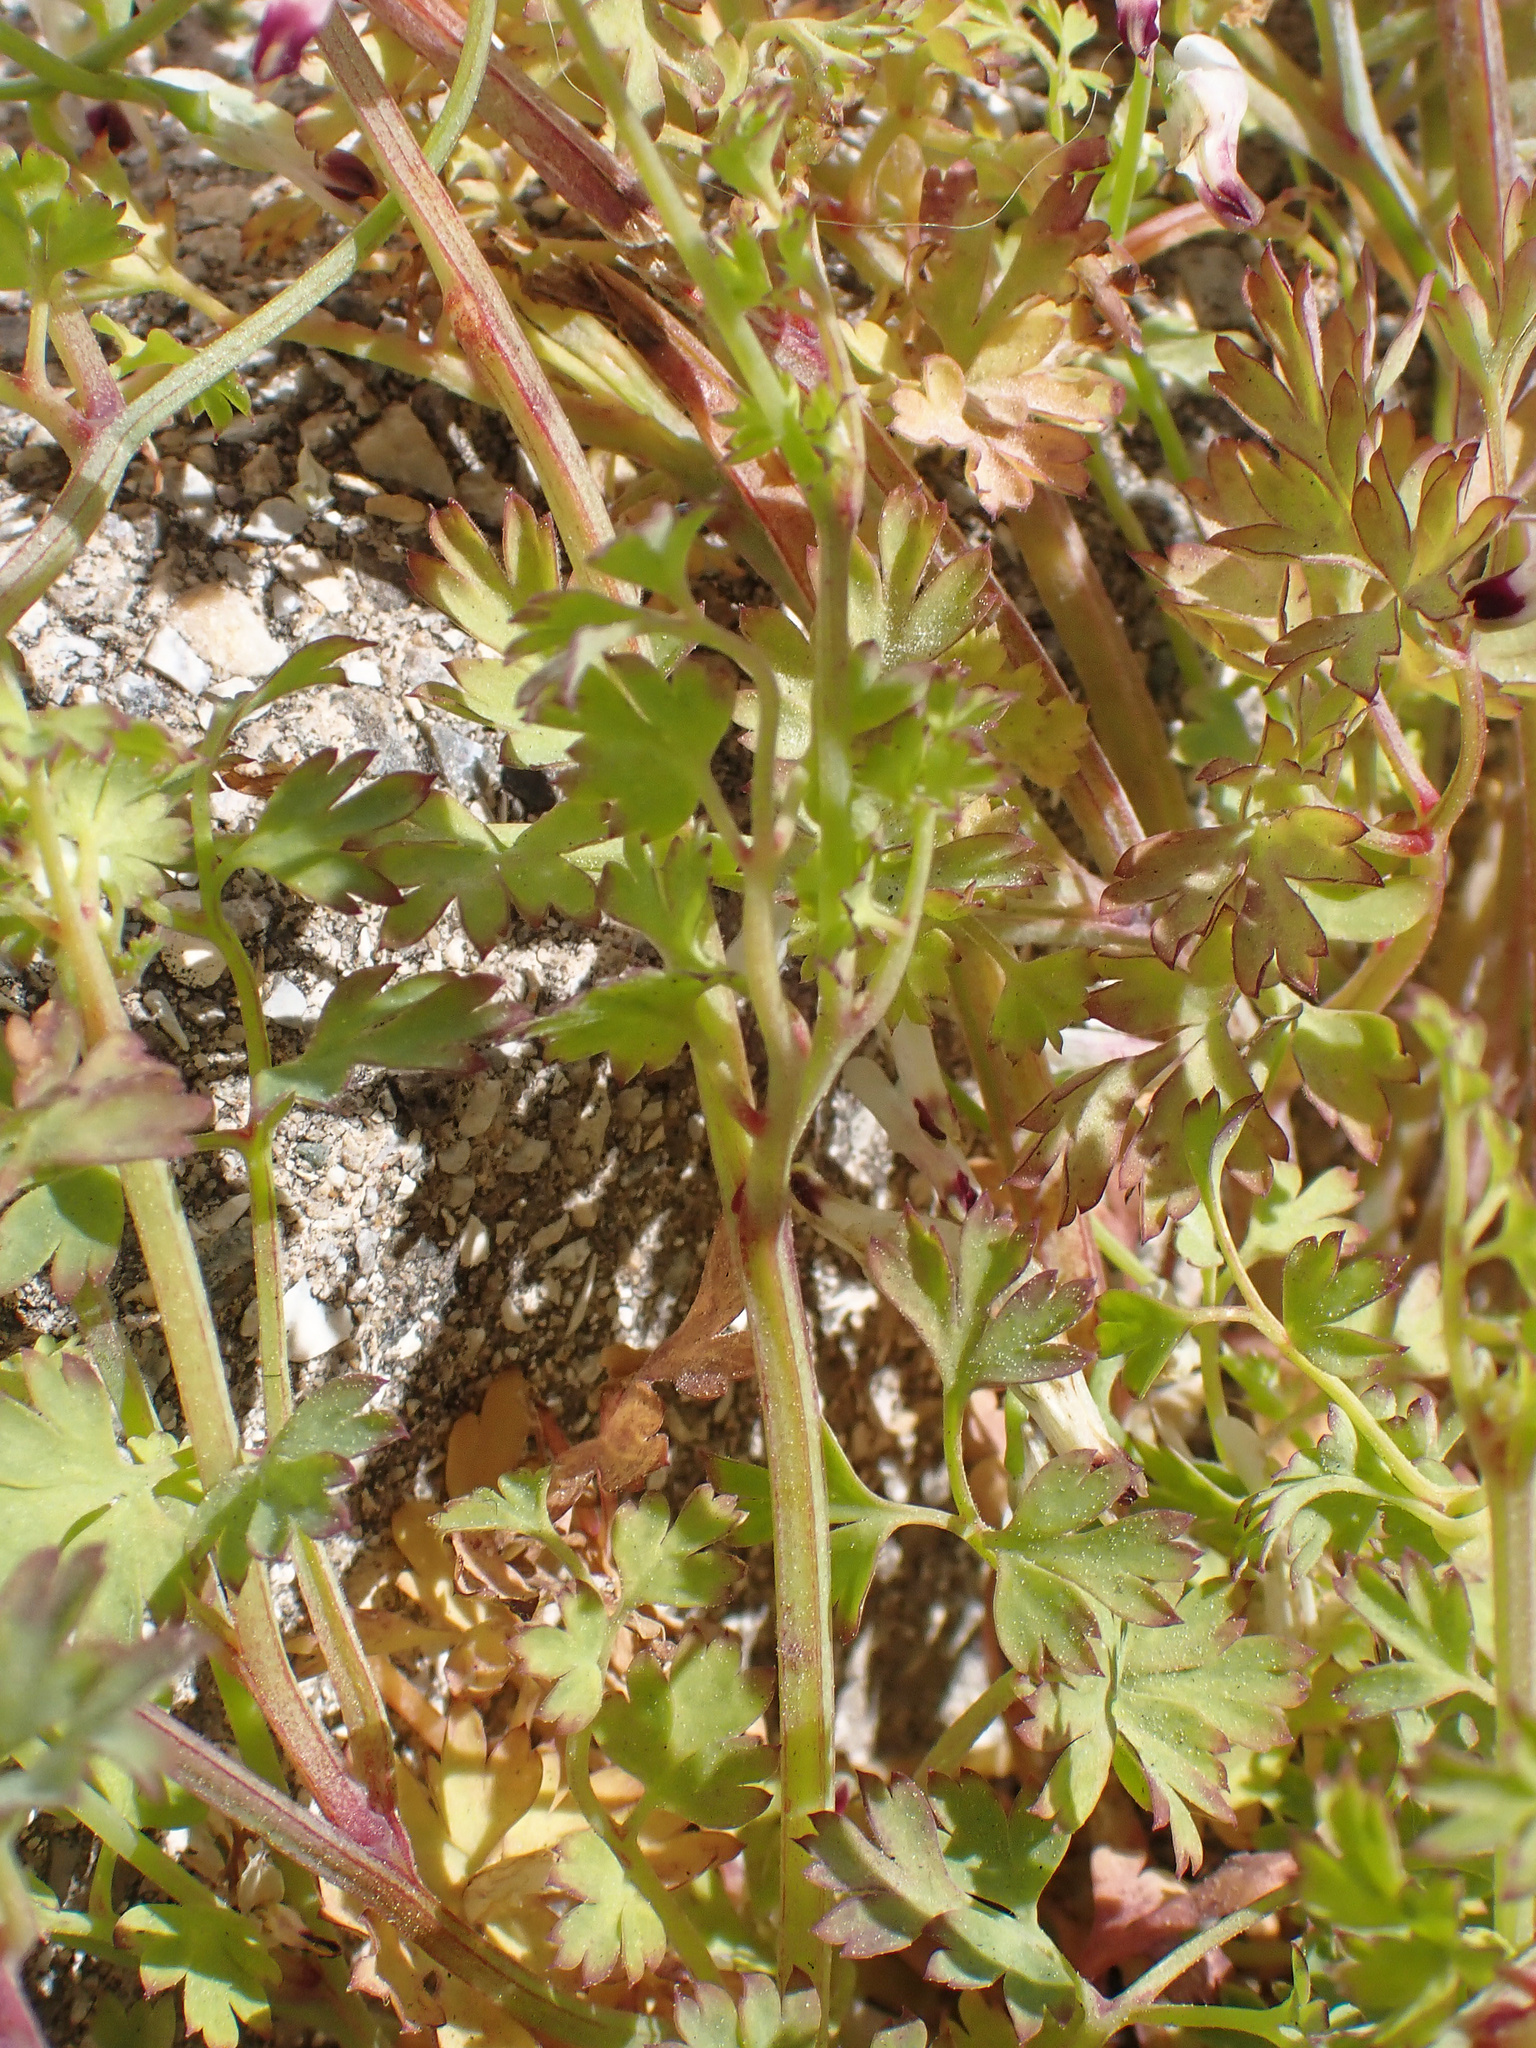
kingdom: Plantae
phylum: Tracheophyta
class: Magnoliopsida
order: Ranunculales
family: Papaveraceae
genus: Fumaria
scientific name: Fumaria capreolata
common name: White ramping-fumitory
